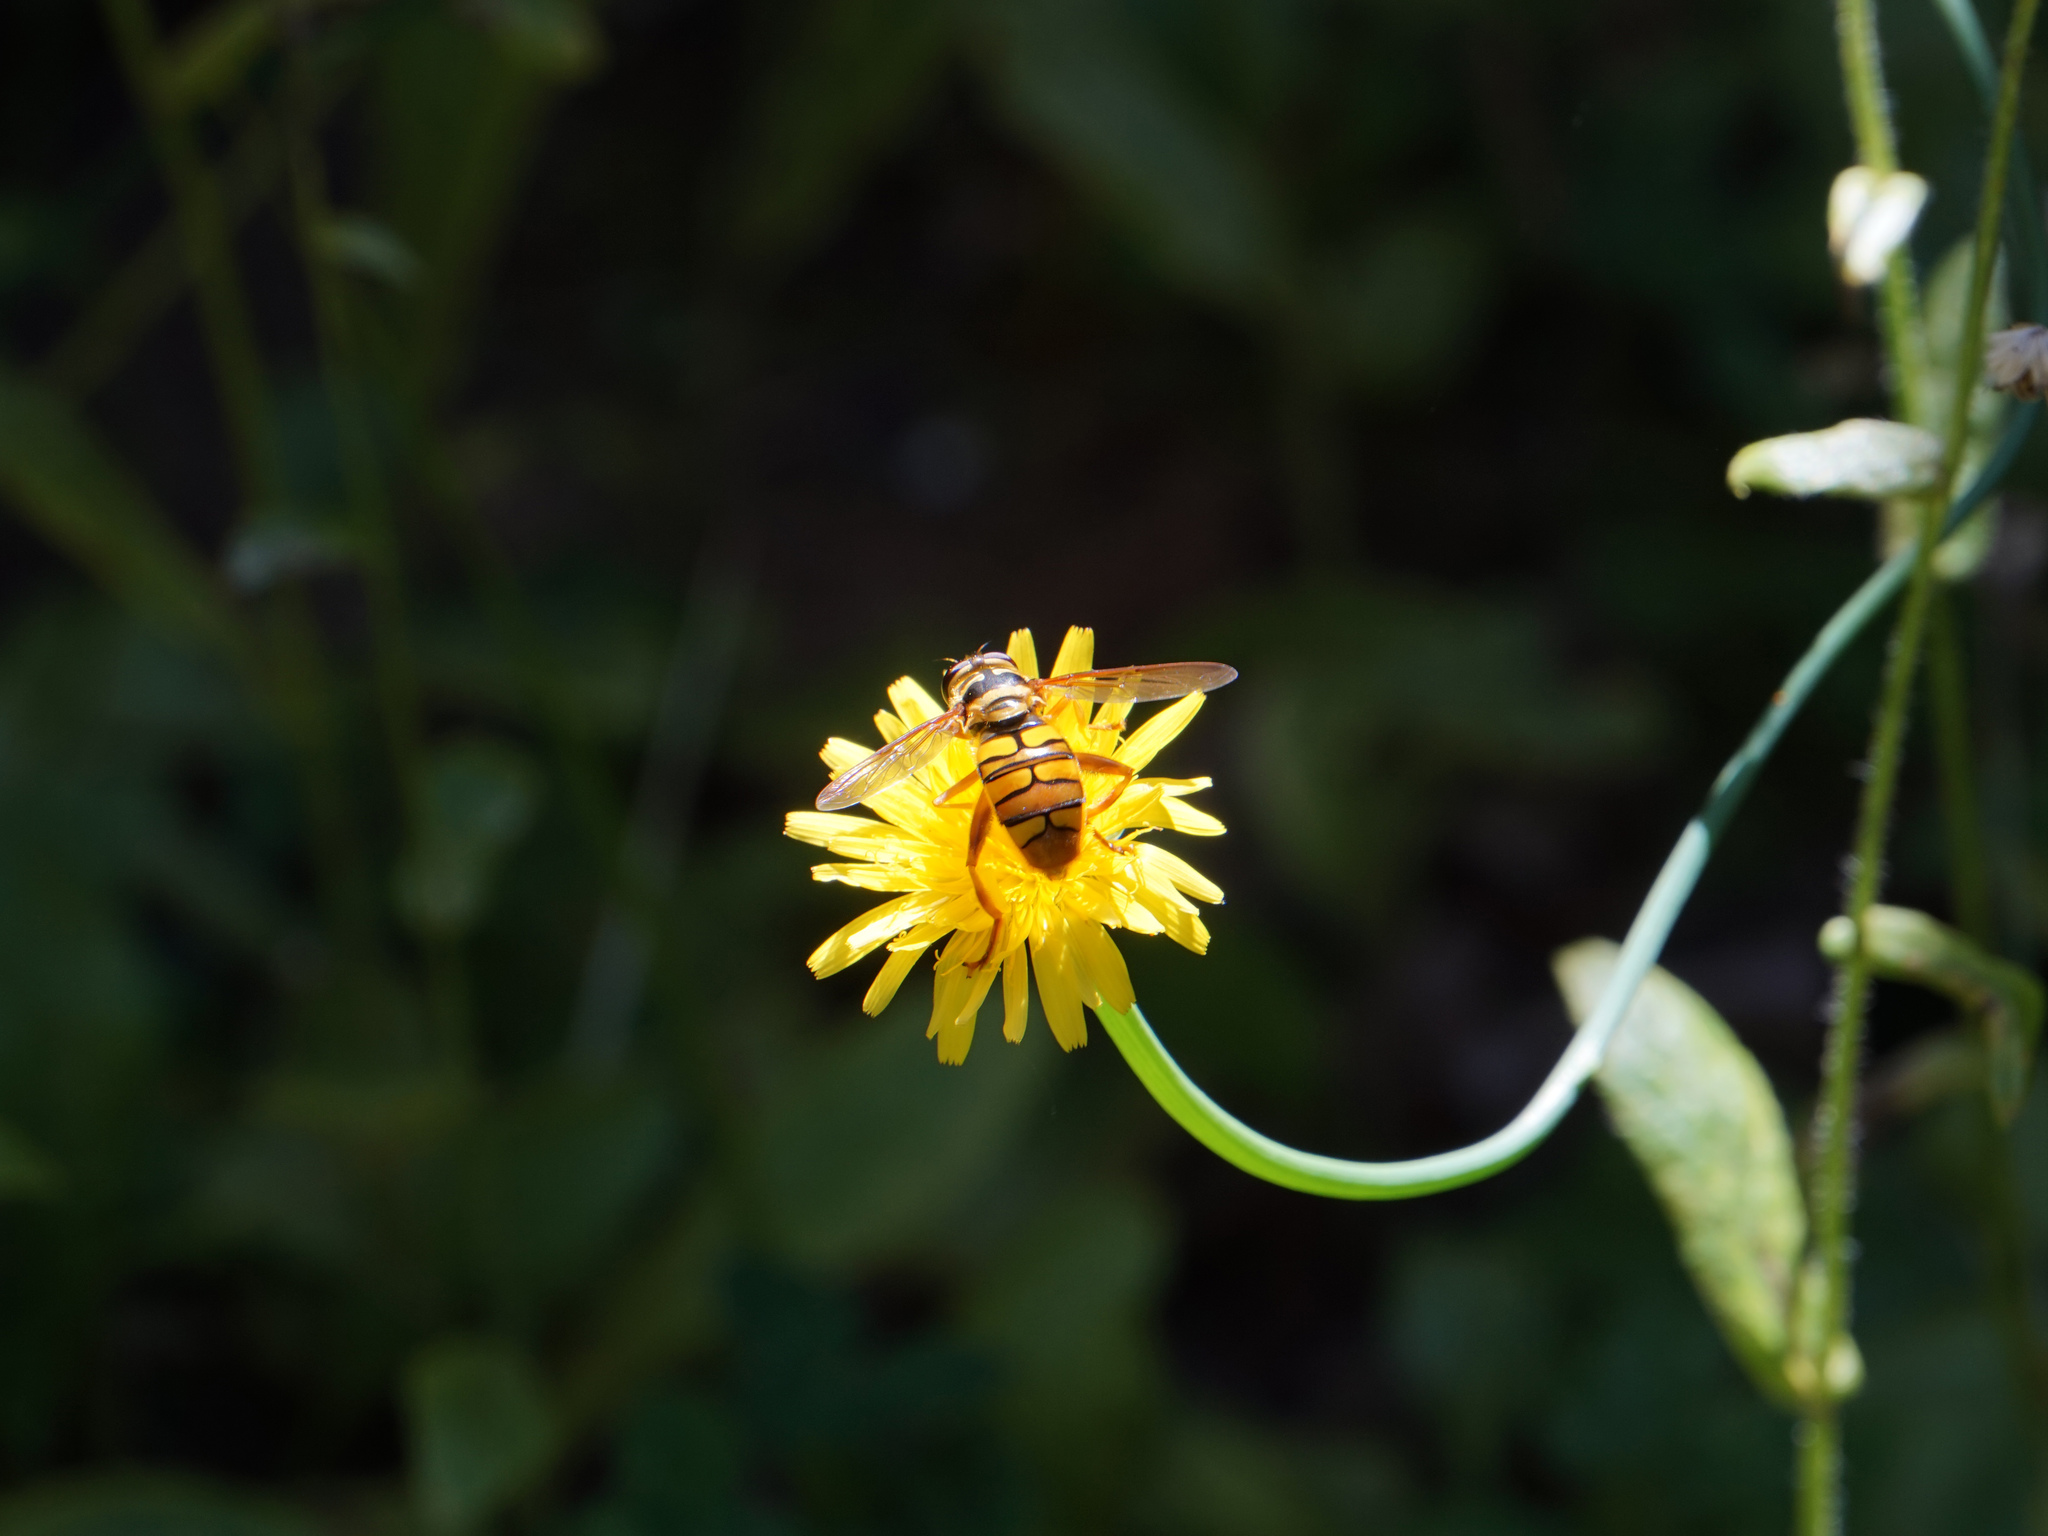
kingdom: Animalia
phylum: Arthropoda
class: Insecta
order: Diptera
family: Syrphidae
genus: Milesia
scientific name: Milesia virginiensis
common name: Virginia giant
